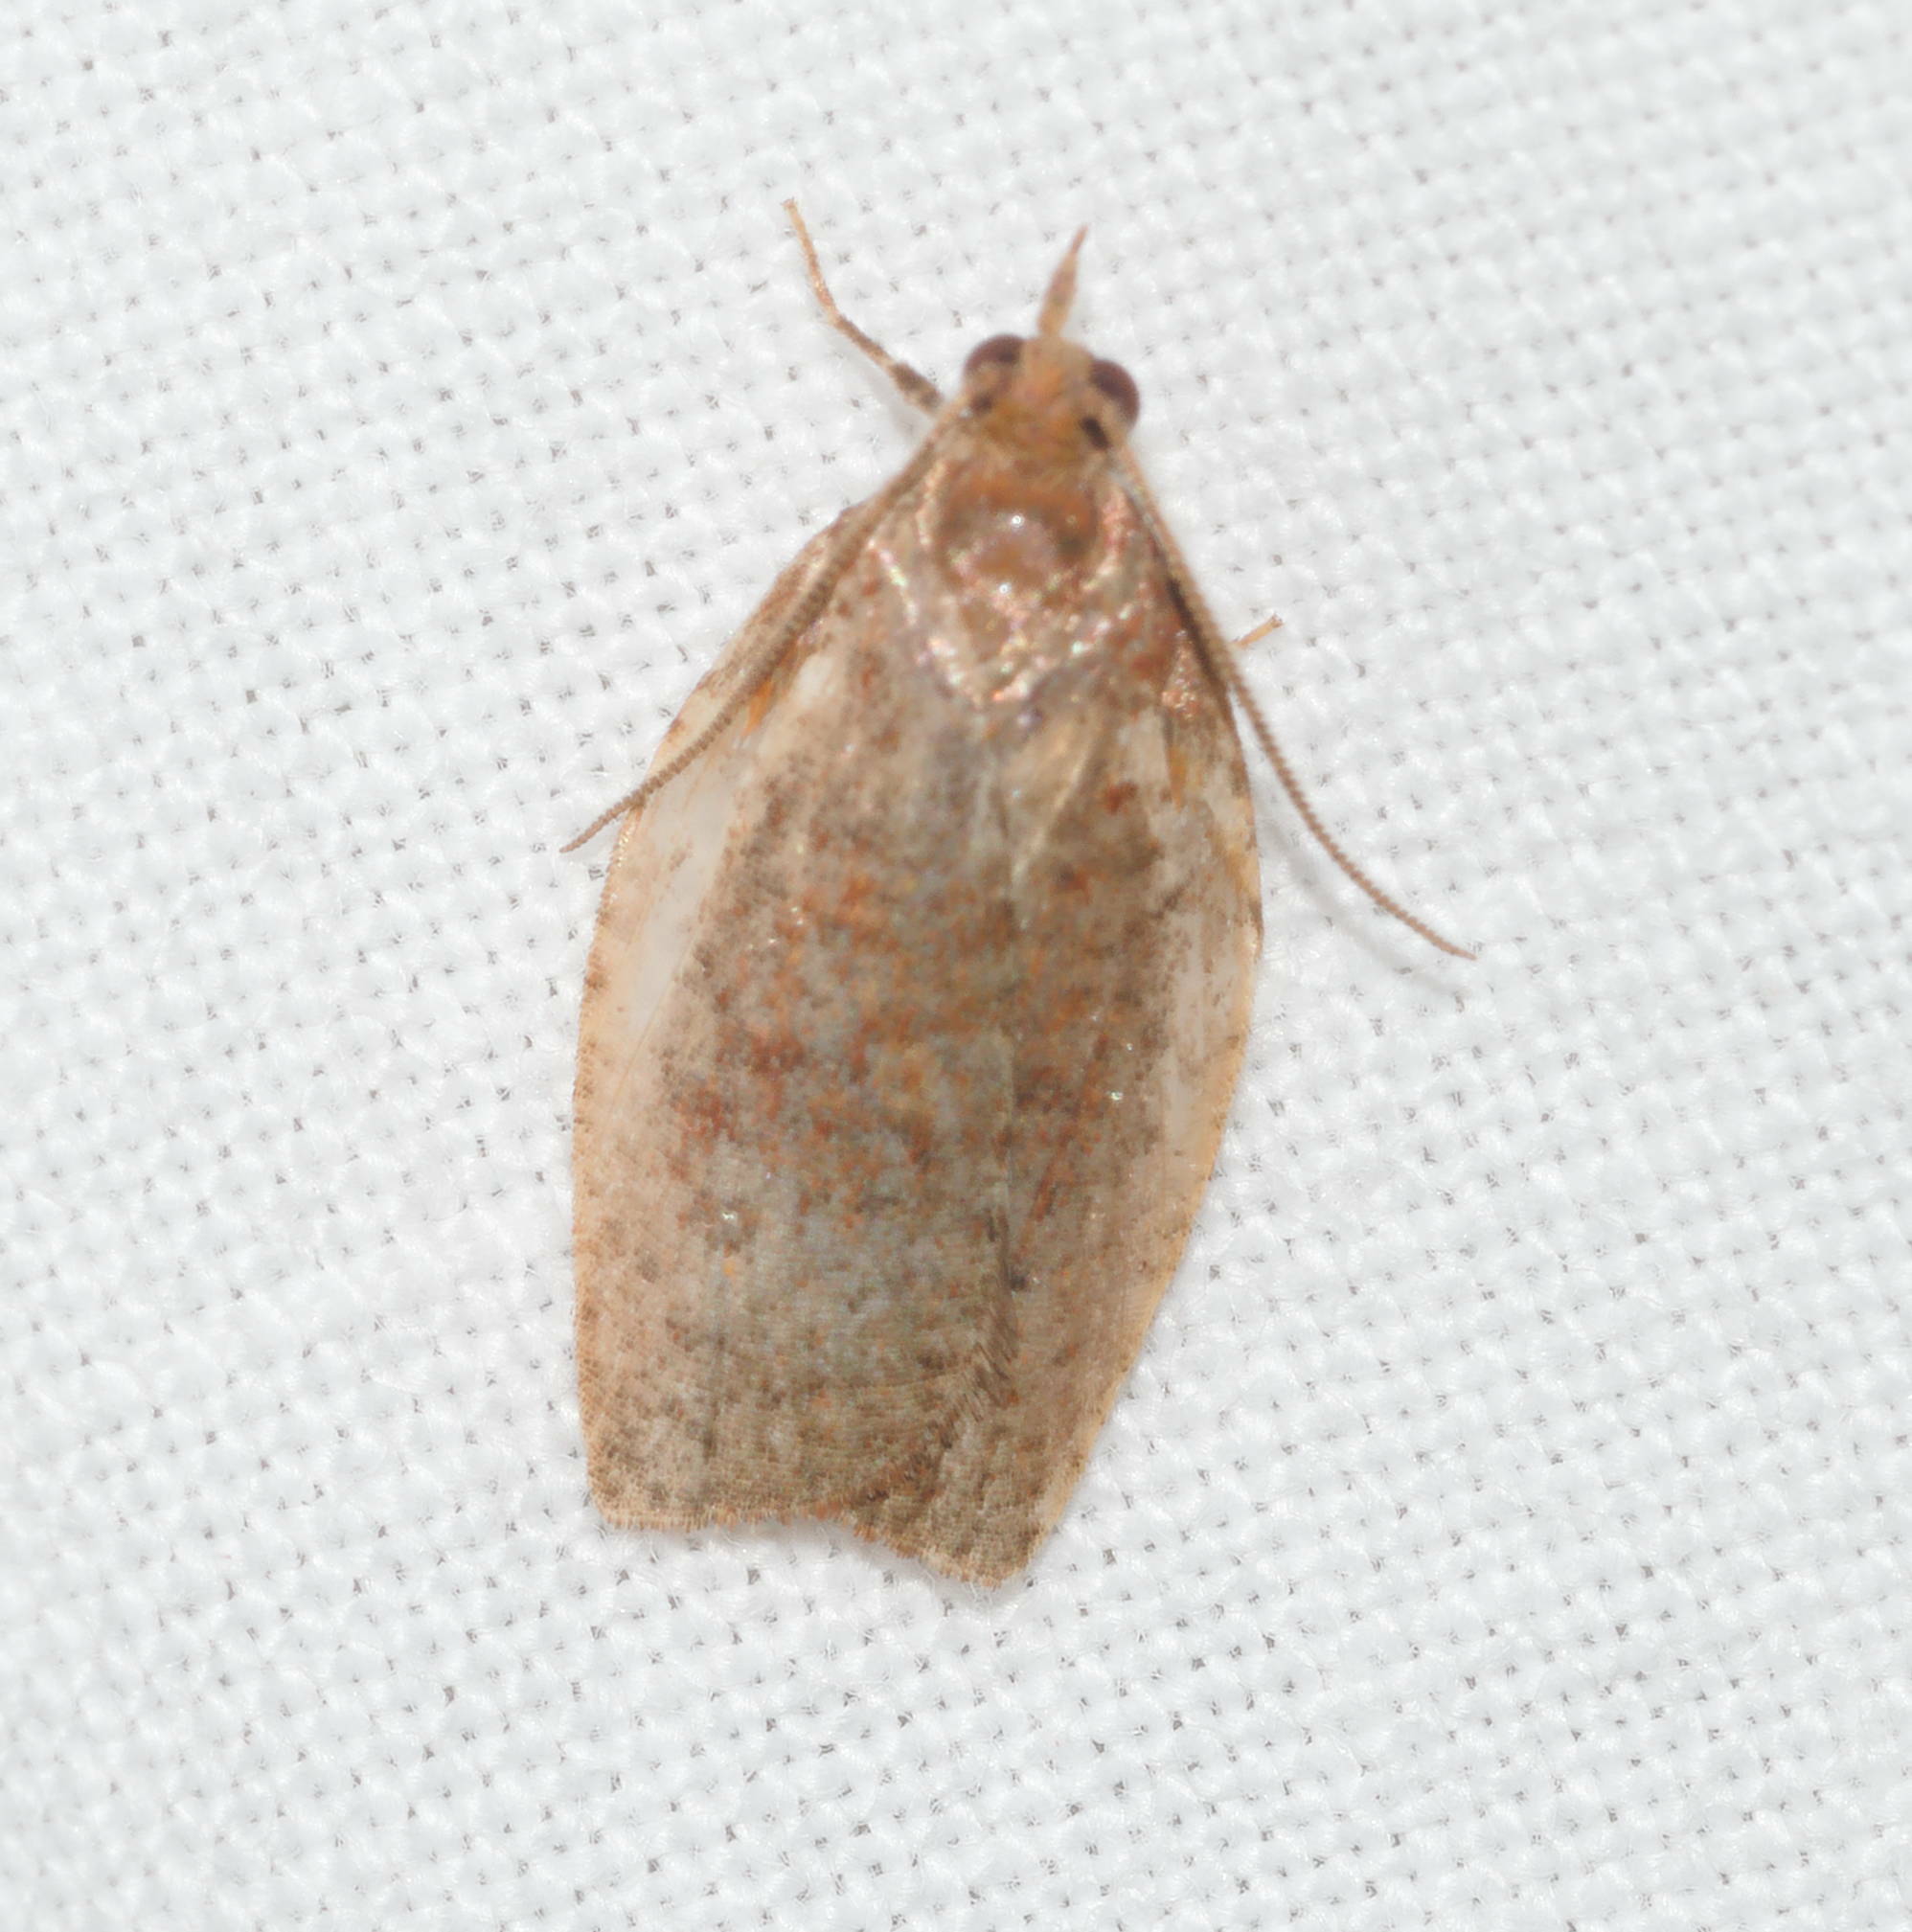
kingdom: Animalia
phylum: Arthropoda
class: Insecta
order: Lepidoptera
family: Tortricidae
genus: Spheterista
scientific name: Spheterista pleonectes
